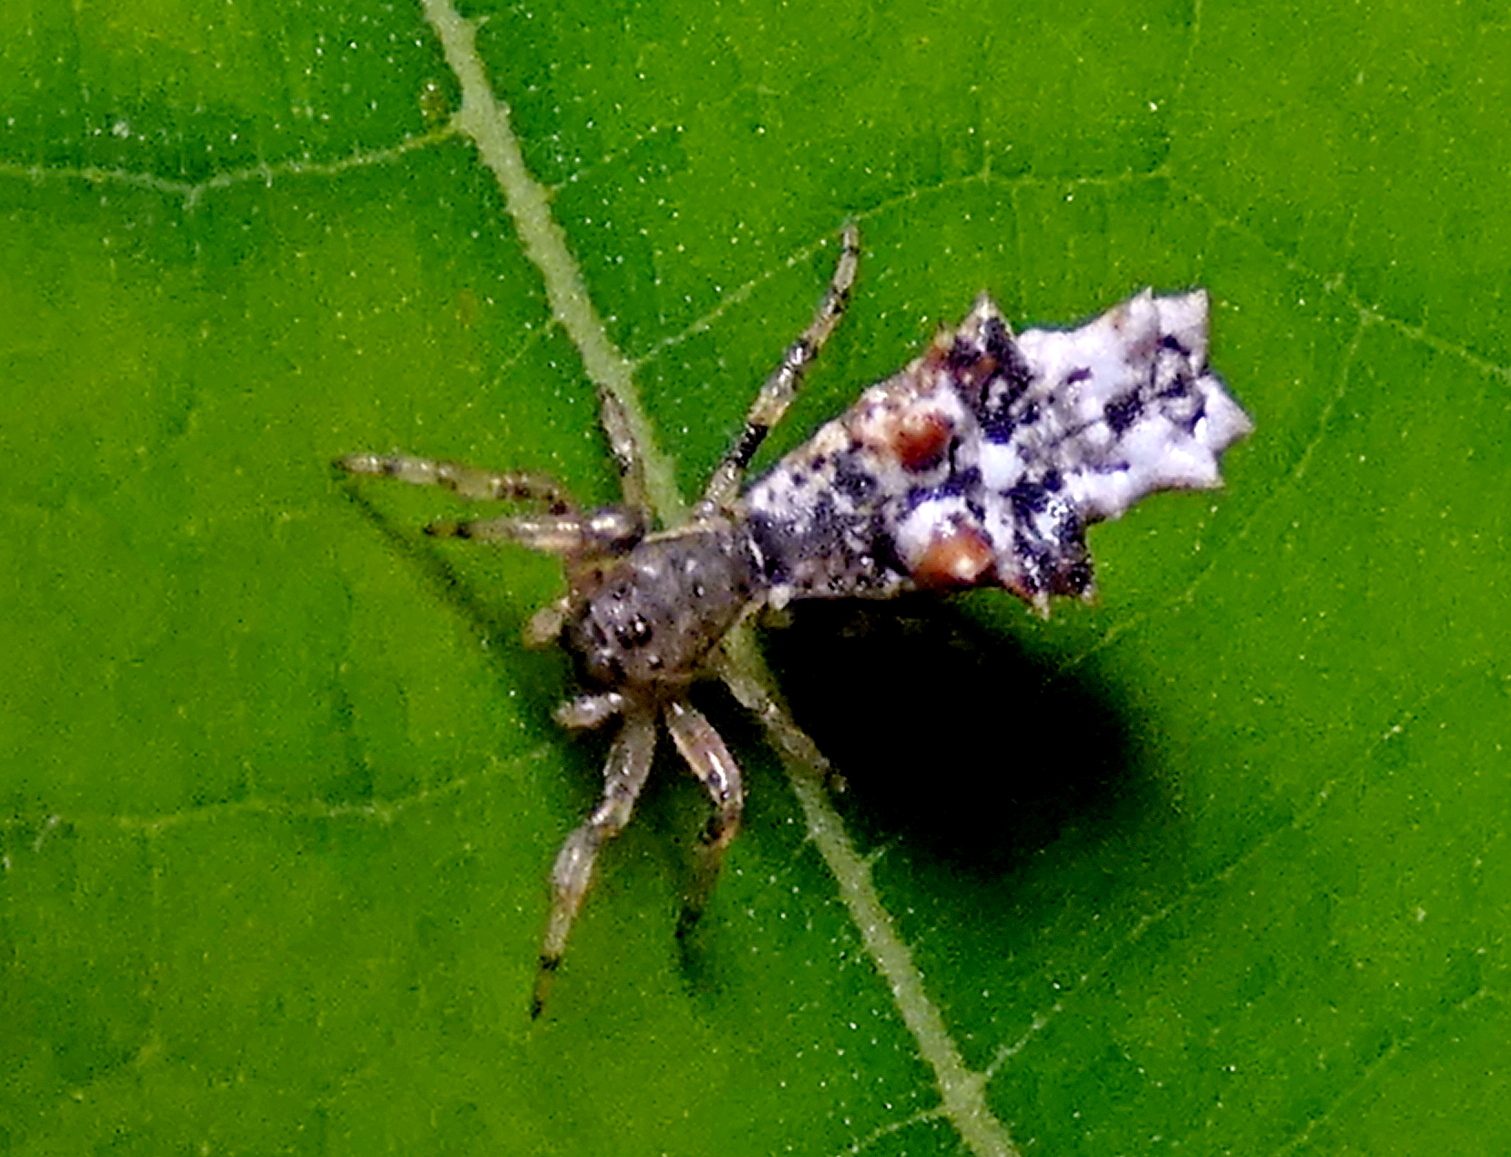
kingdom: Animalia
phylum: Arthropoda
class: Arachnida
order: Araneae
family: Araneidae
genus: Micrathena
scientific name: Micrathena horrida
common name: Orb weavers
